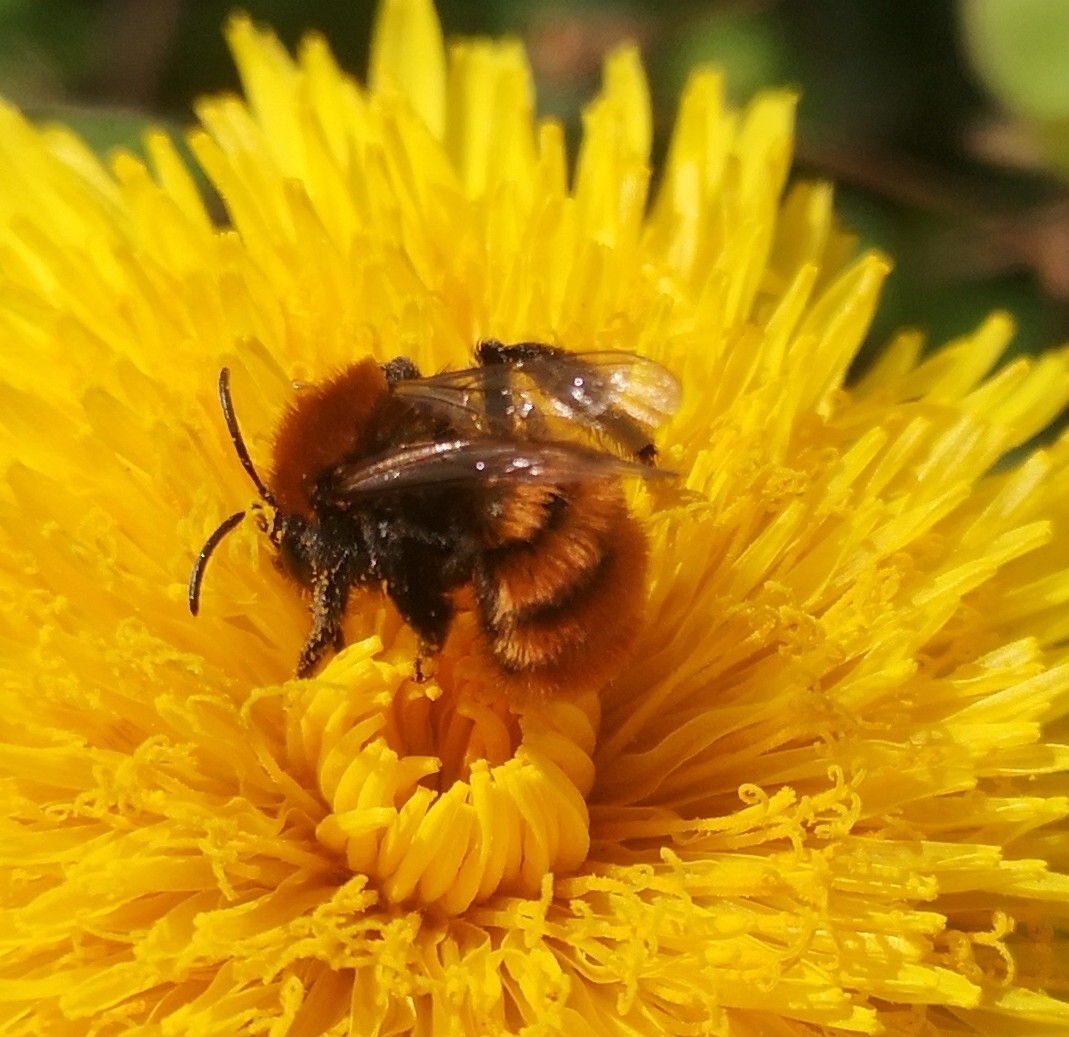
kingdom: Animalia
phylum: Arthropoda
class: Insecta
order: Hymenoptera
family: Andrenidae
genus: Andrena
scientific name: Andrena fulva
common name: Tawny mining bee
